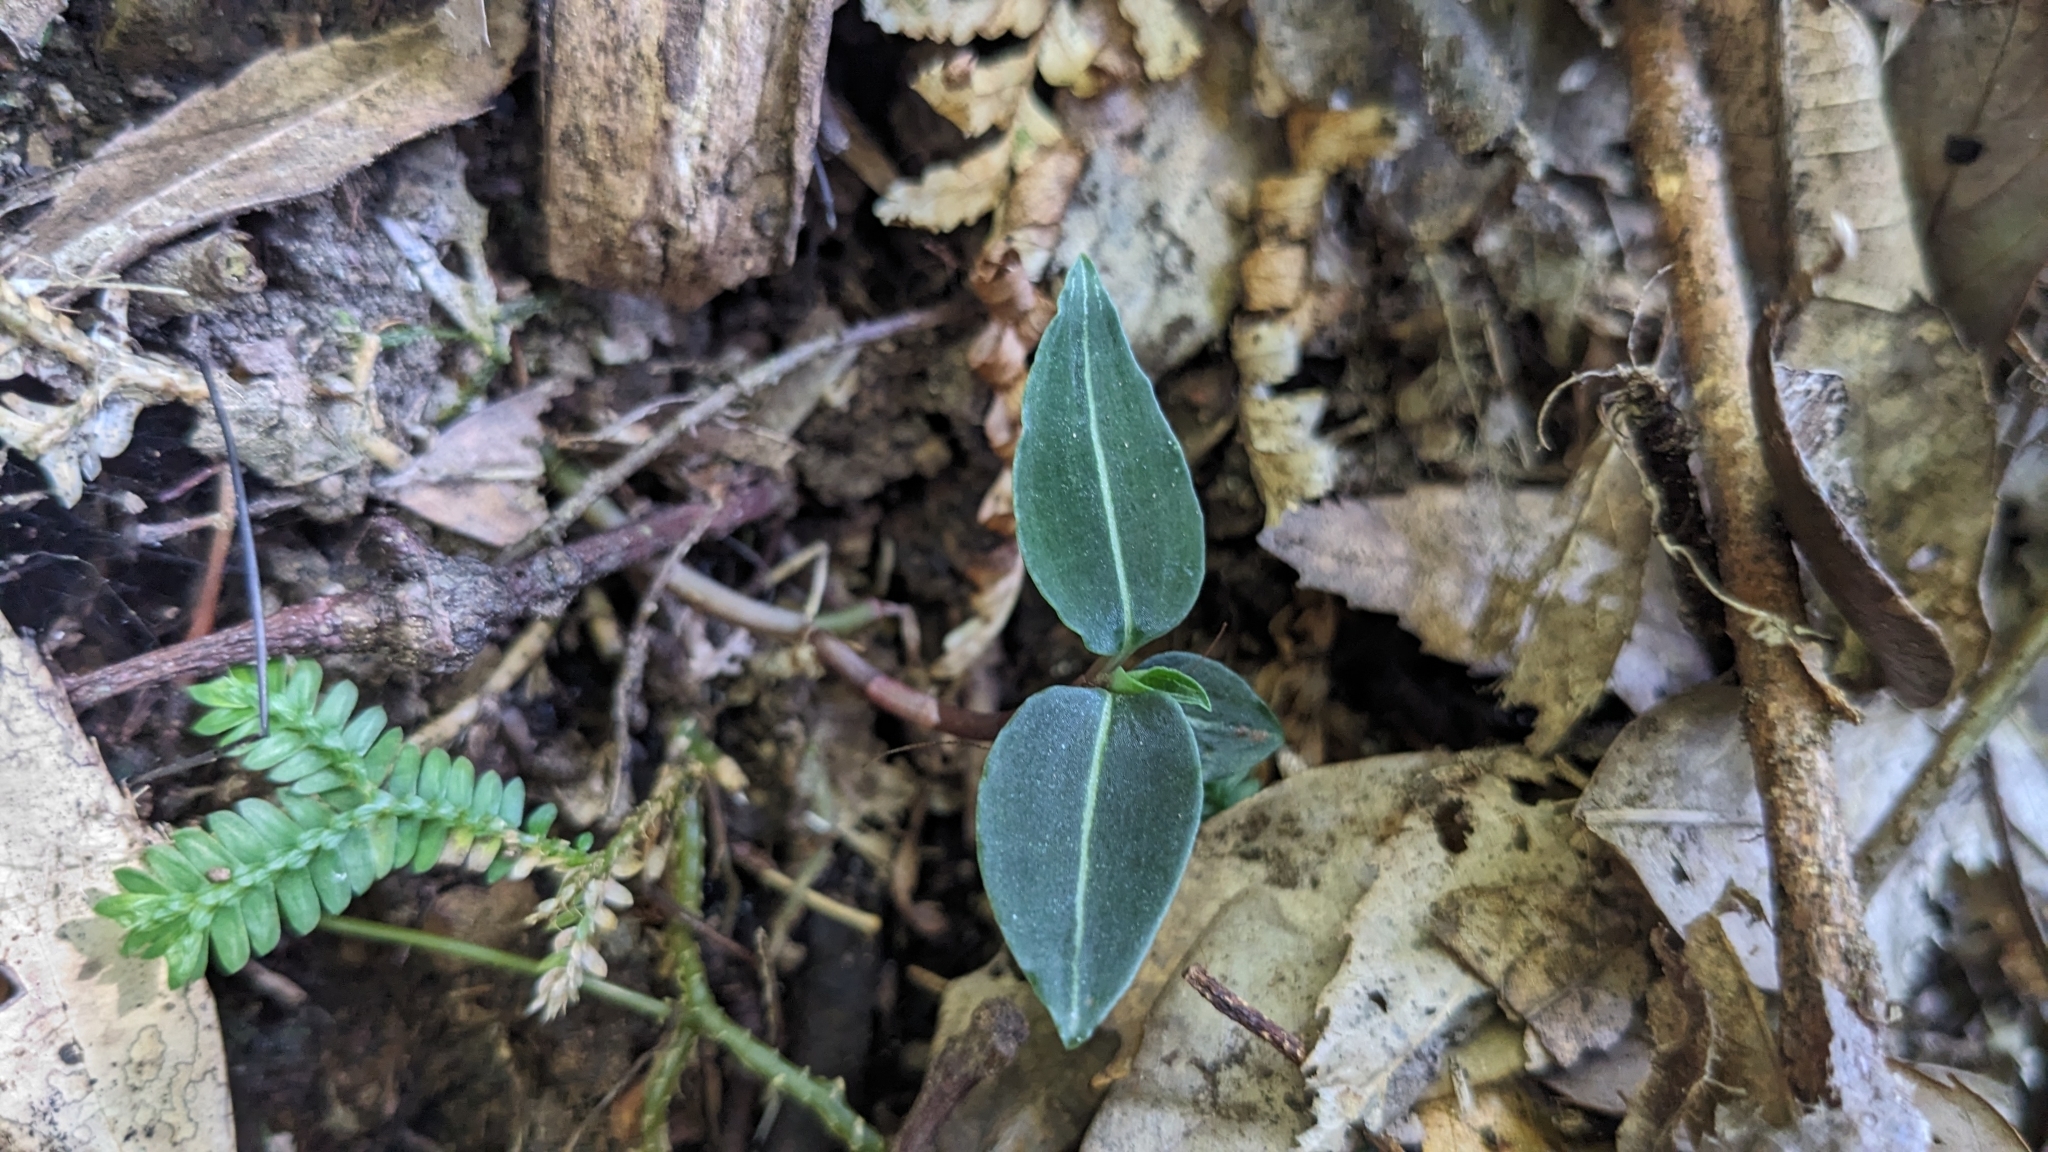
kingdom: Plantae
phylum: Tracheophyta
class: Liliopsida
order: Asparagales
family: Orchidaceae
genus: Goodyera
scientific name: Goodyera velutina
